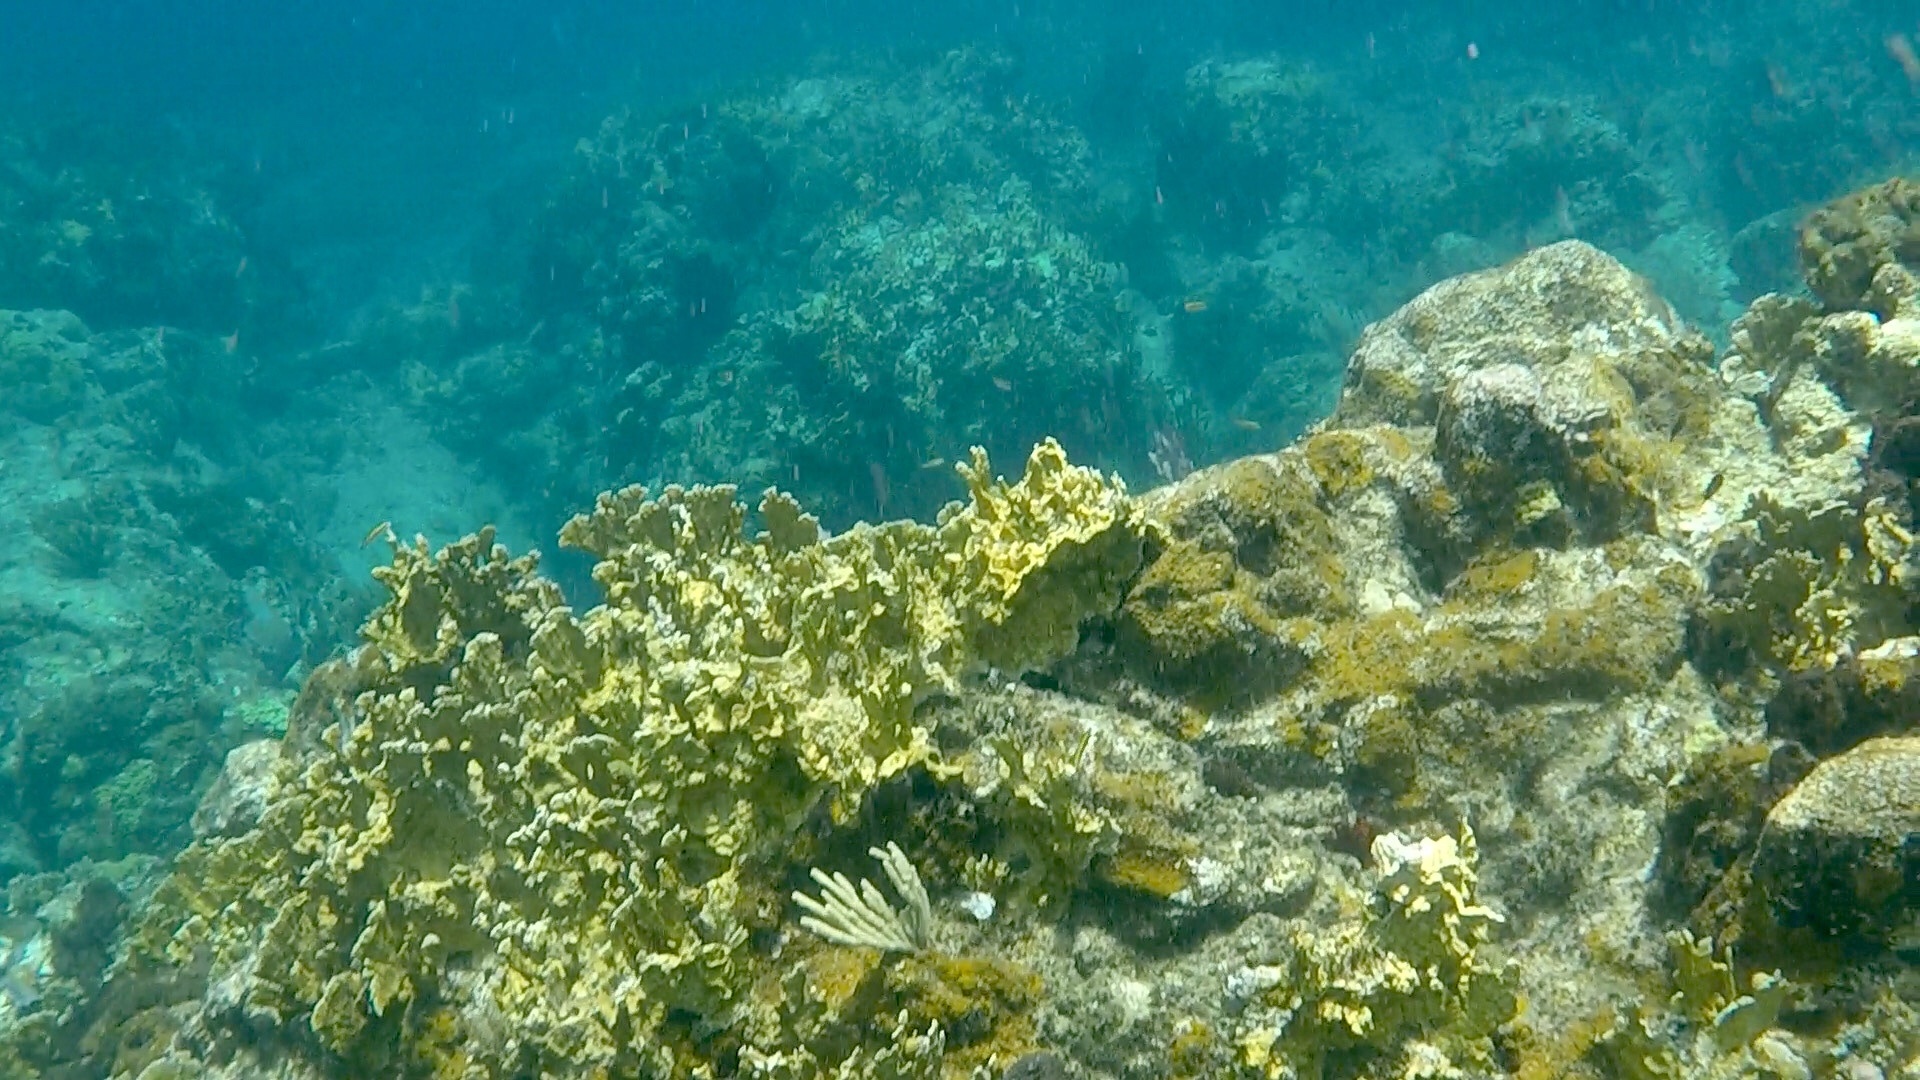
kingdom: Animalia
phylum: Cnidaria
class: Hydrozoa
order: Anthoathecata
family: Milleporidae
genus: Millepora
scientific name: Millepora complanata
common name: Bladed fire coral
